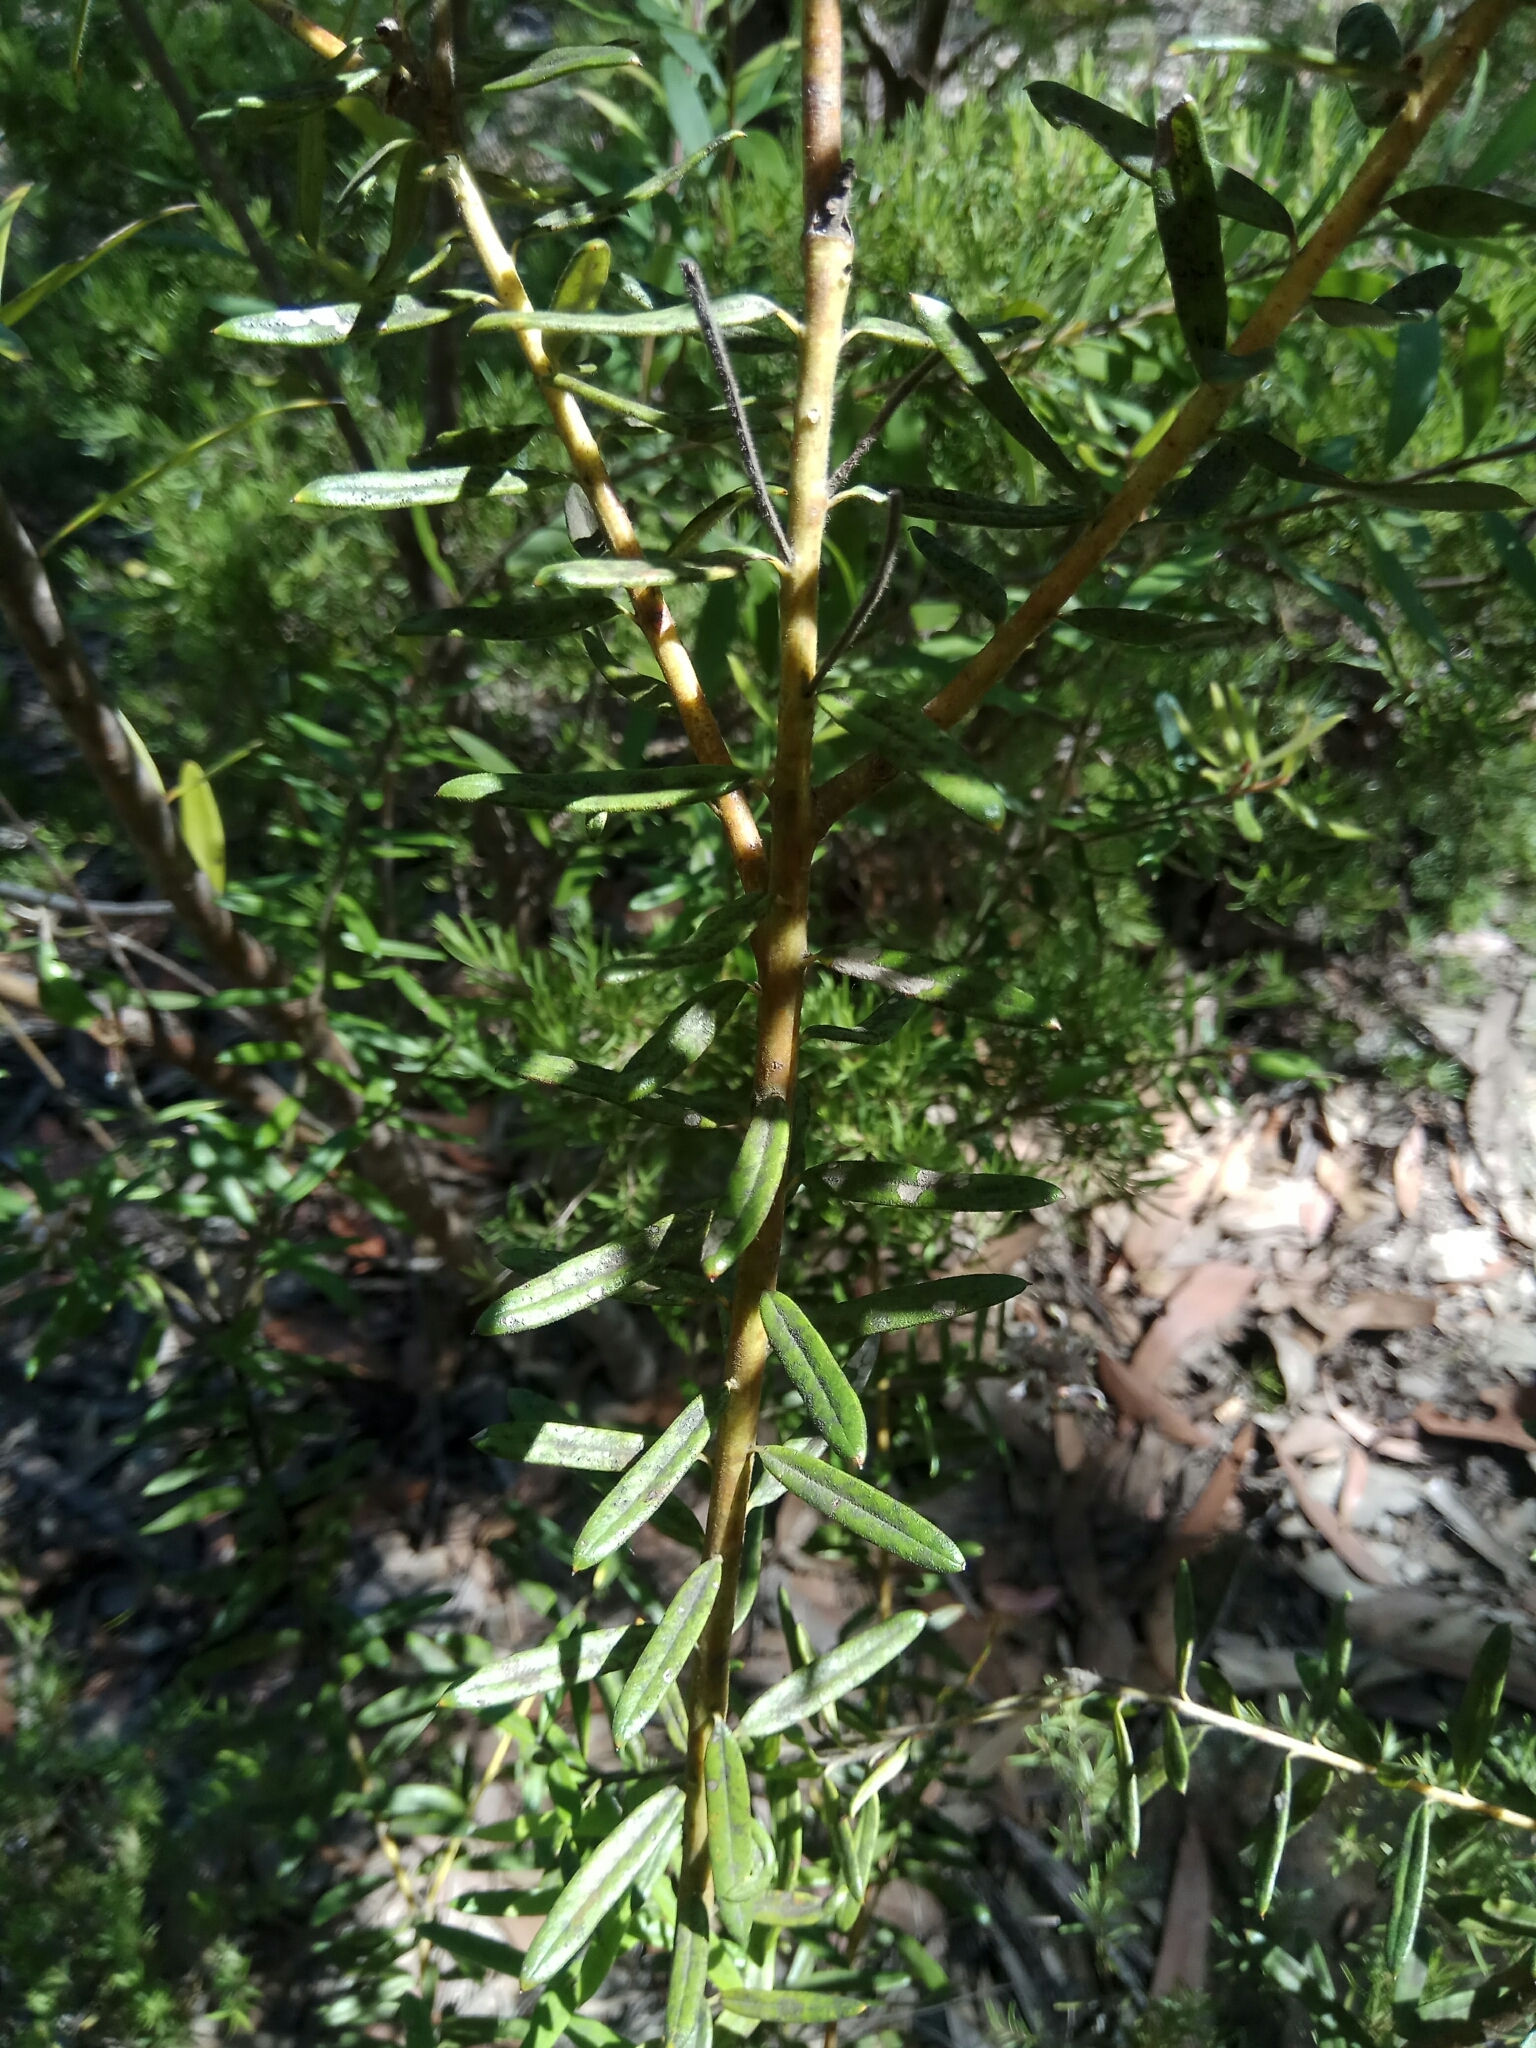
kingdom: Plantae
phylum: Tracheophyta
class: Magnoliopsida
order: Proteales
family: Proteaceae
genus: Grevillea
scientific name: Grevillea phylicoides
